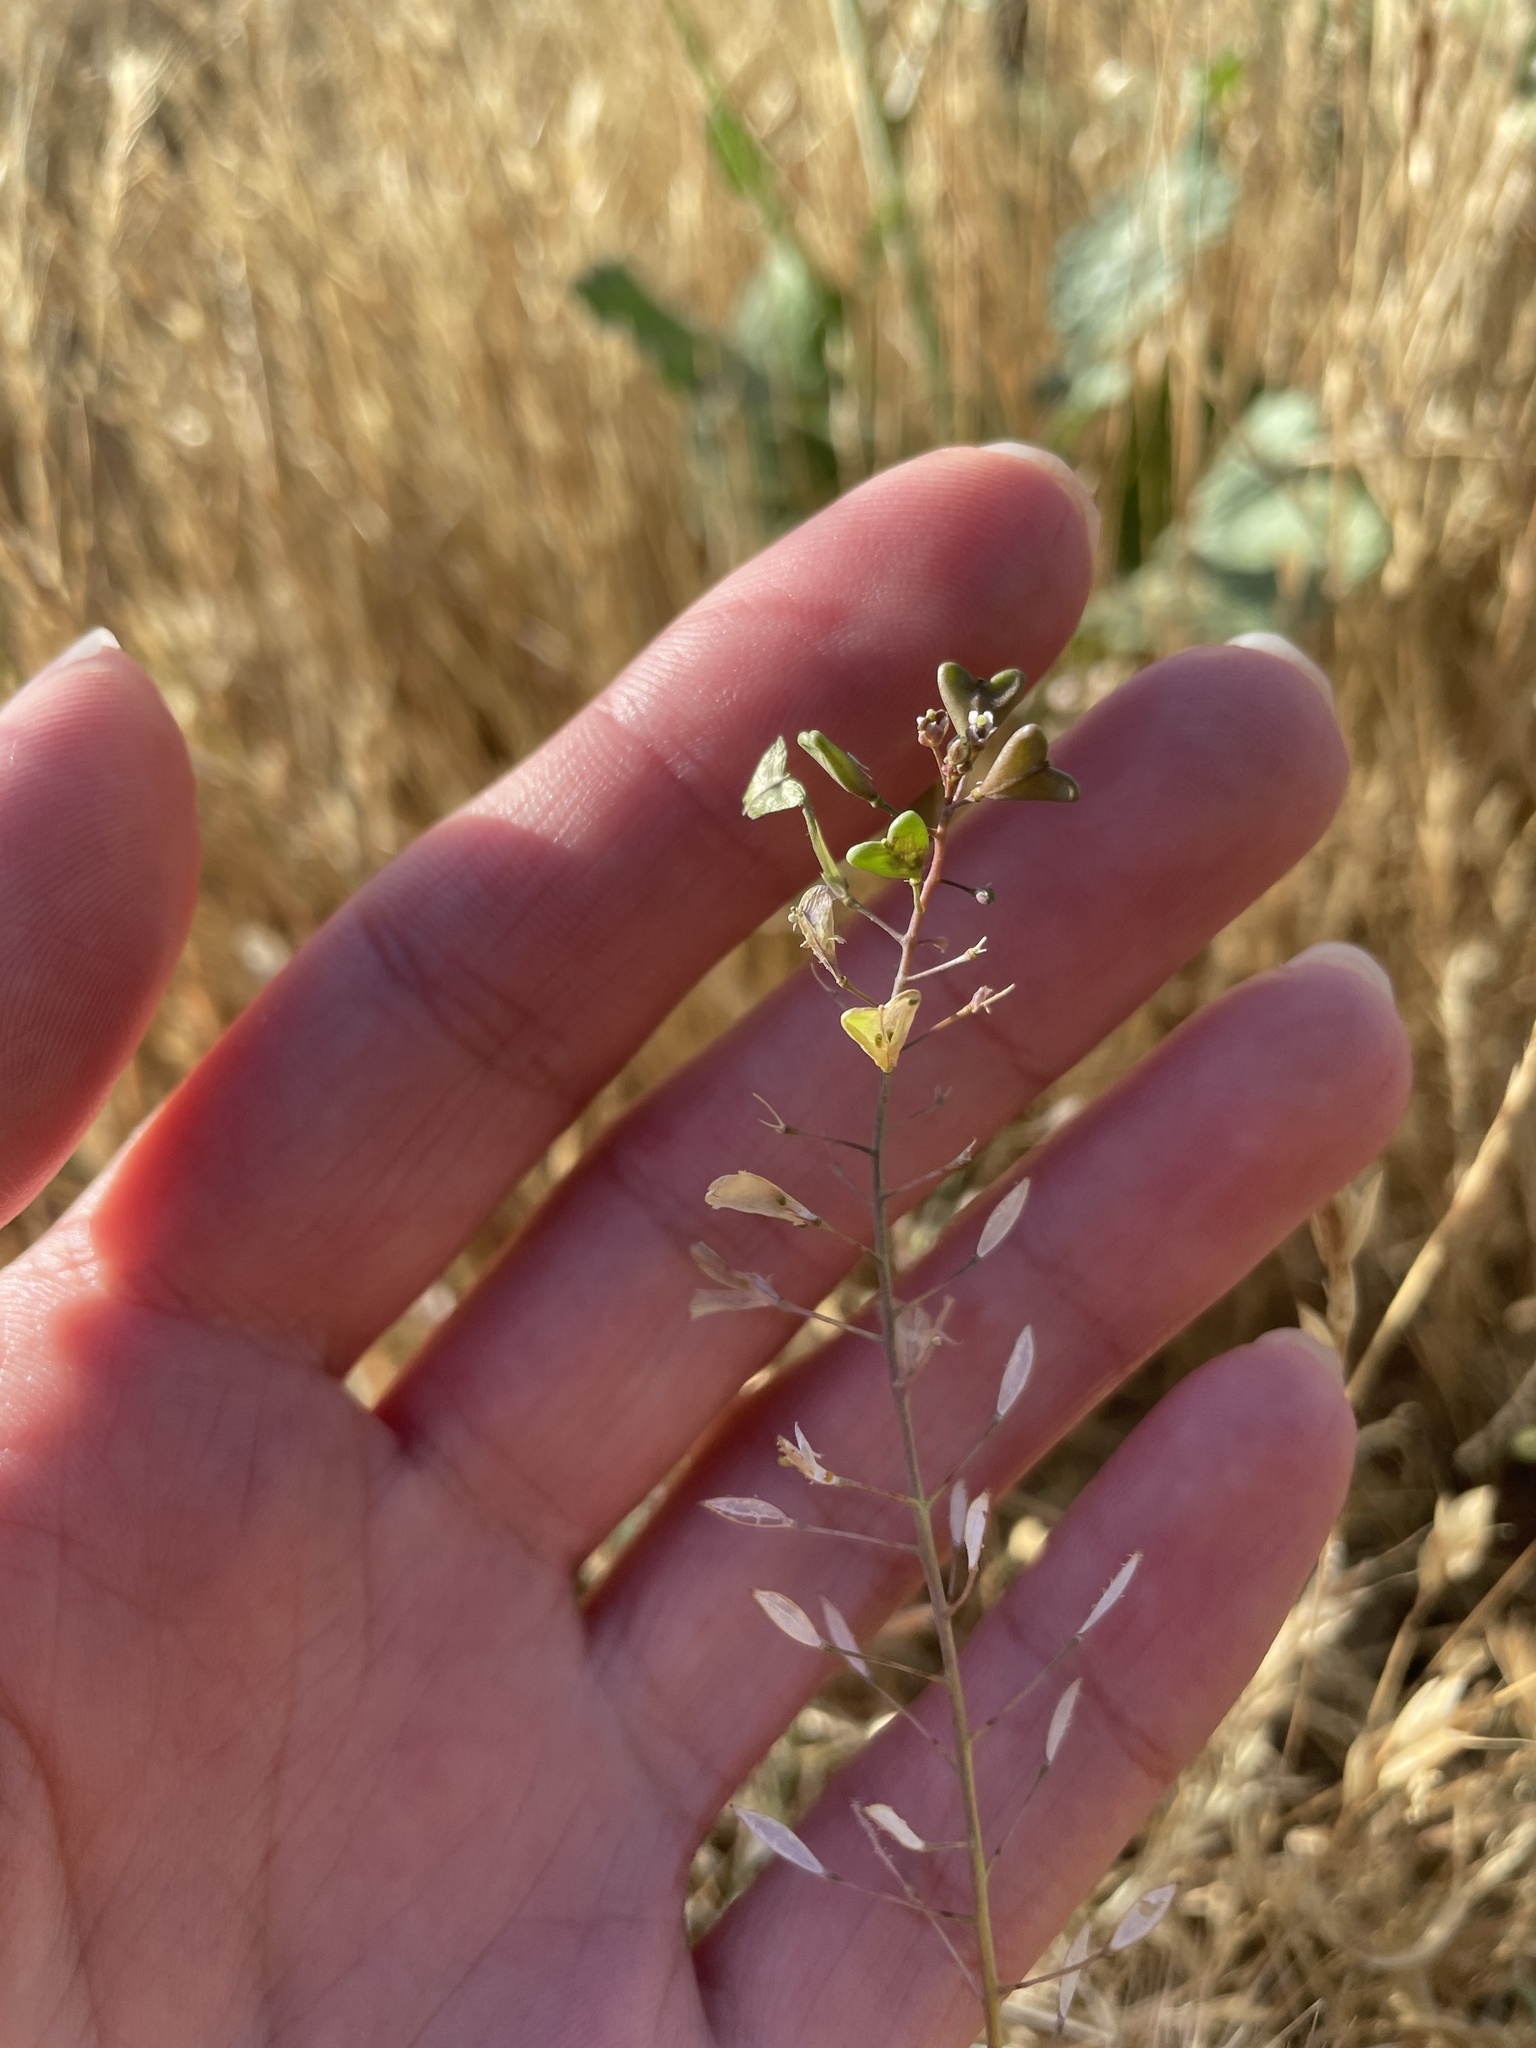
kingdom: Plantae
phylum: Tracheophyta
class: Magnoliopsida
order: Brassicales
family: Brassicaceae
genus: Capsella
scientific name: Capsella bursa-pastoris
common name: Shepherd's purse
